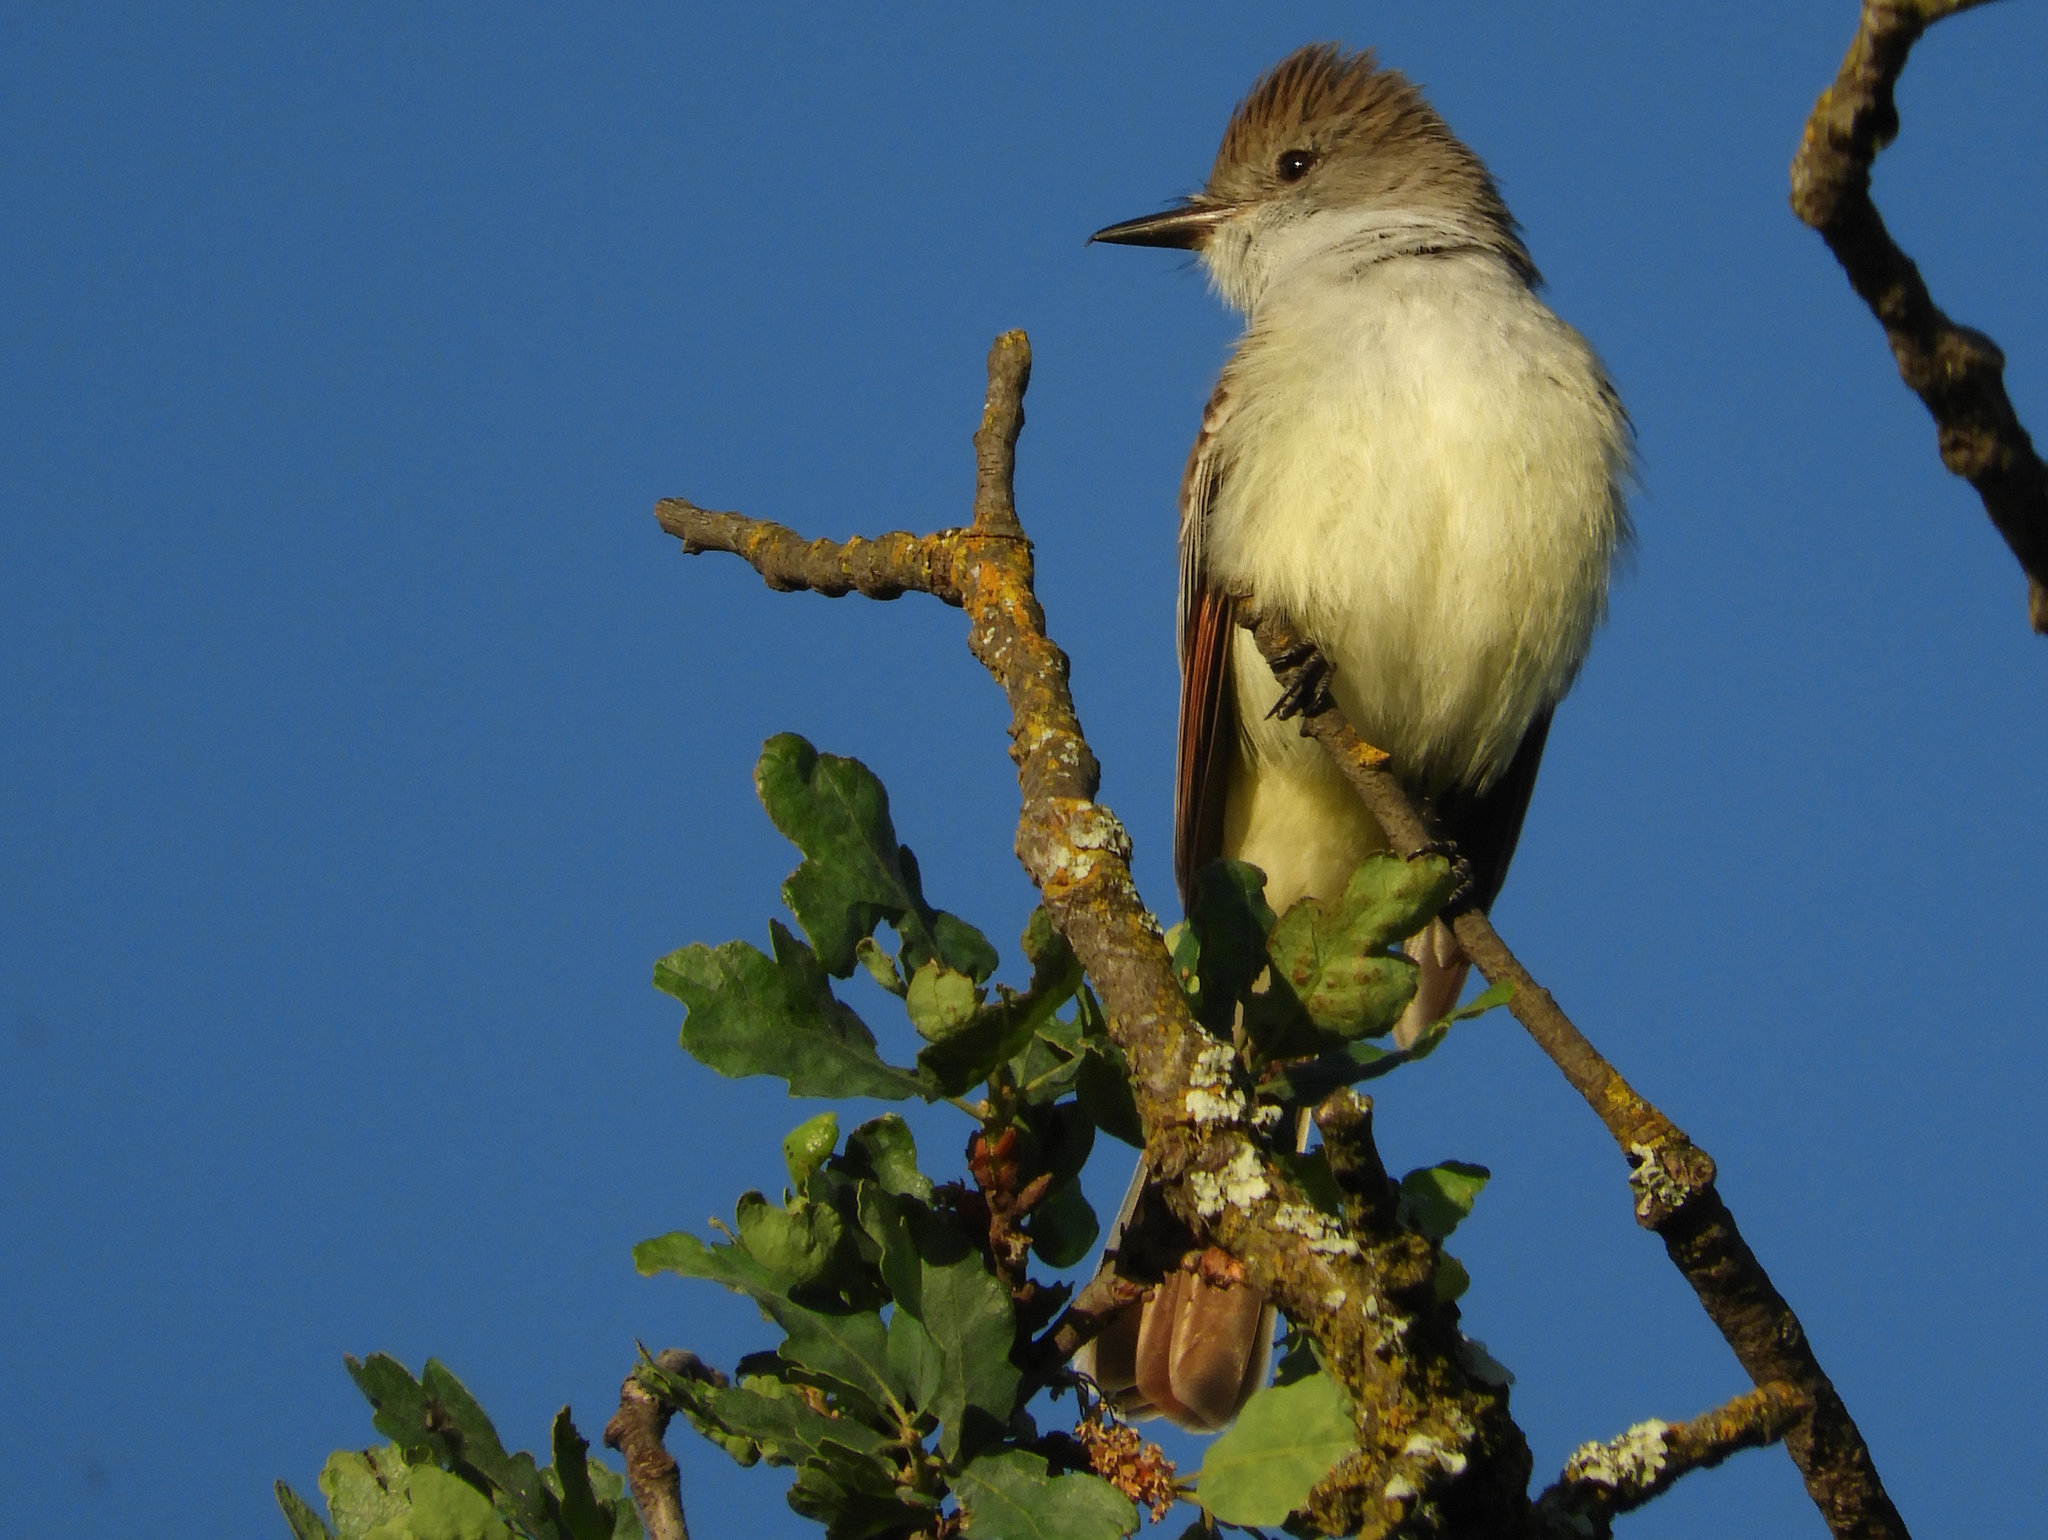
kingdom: Animalia
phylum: Chordata
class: Aves
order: Passeriformes
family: Tyrannidae
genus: Myiarchus
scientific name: Myiarchus cinerascens
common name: Ash-throated flycatcher
